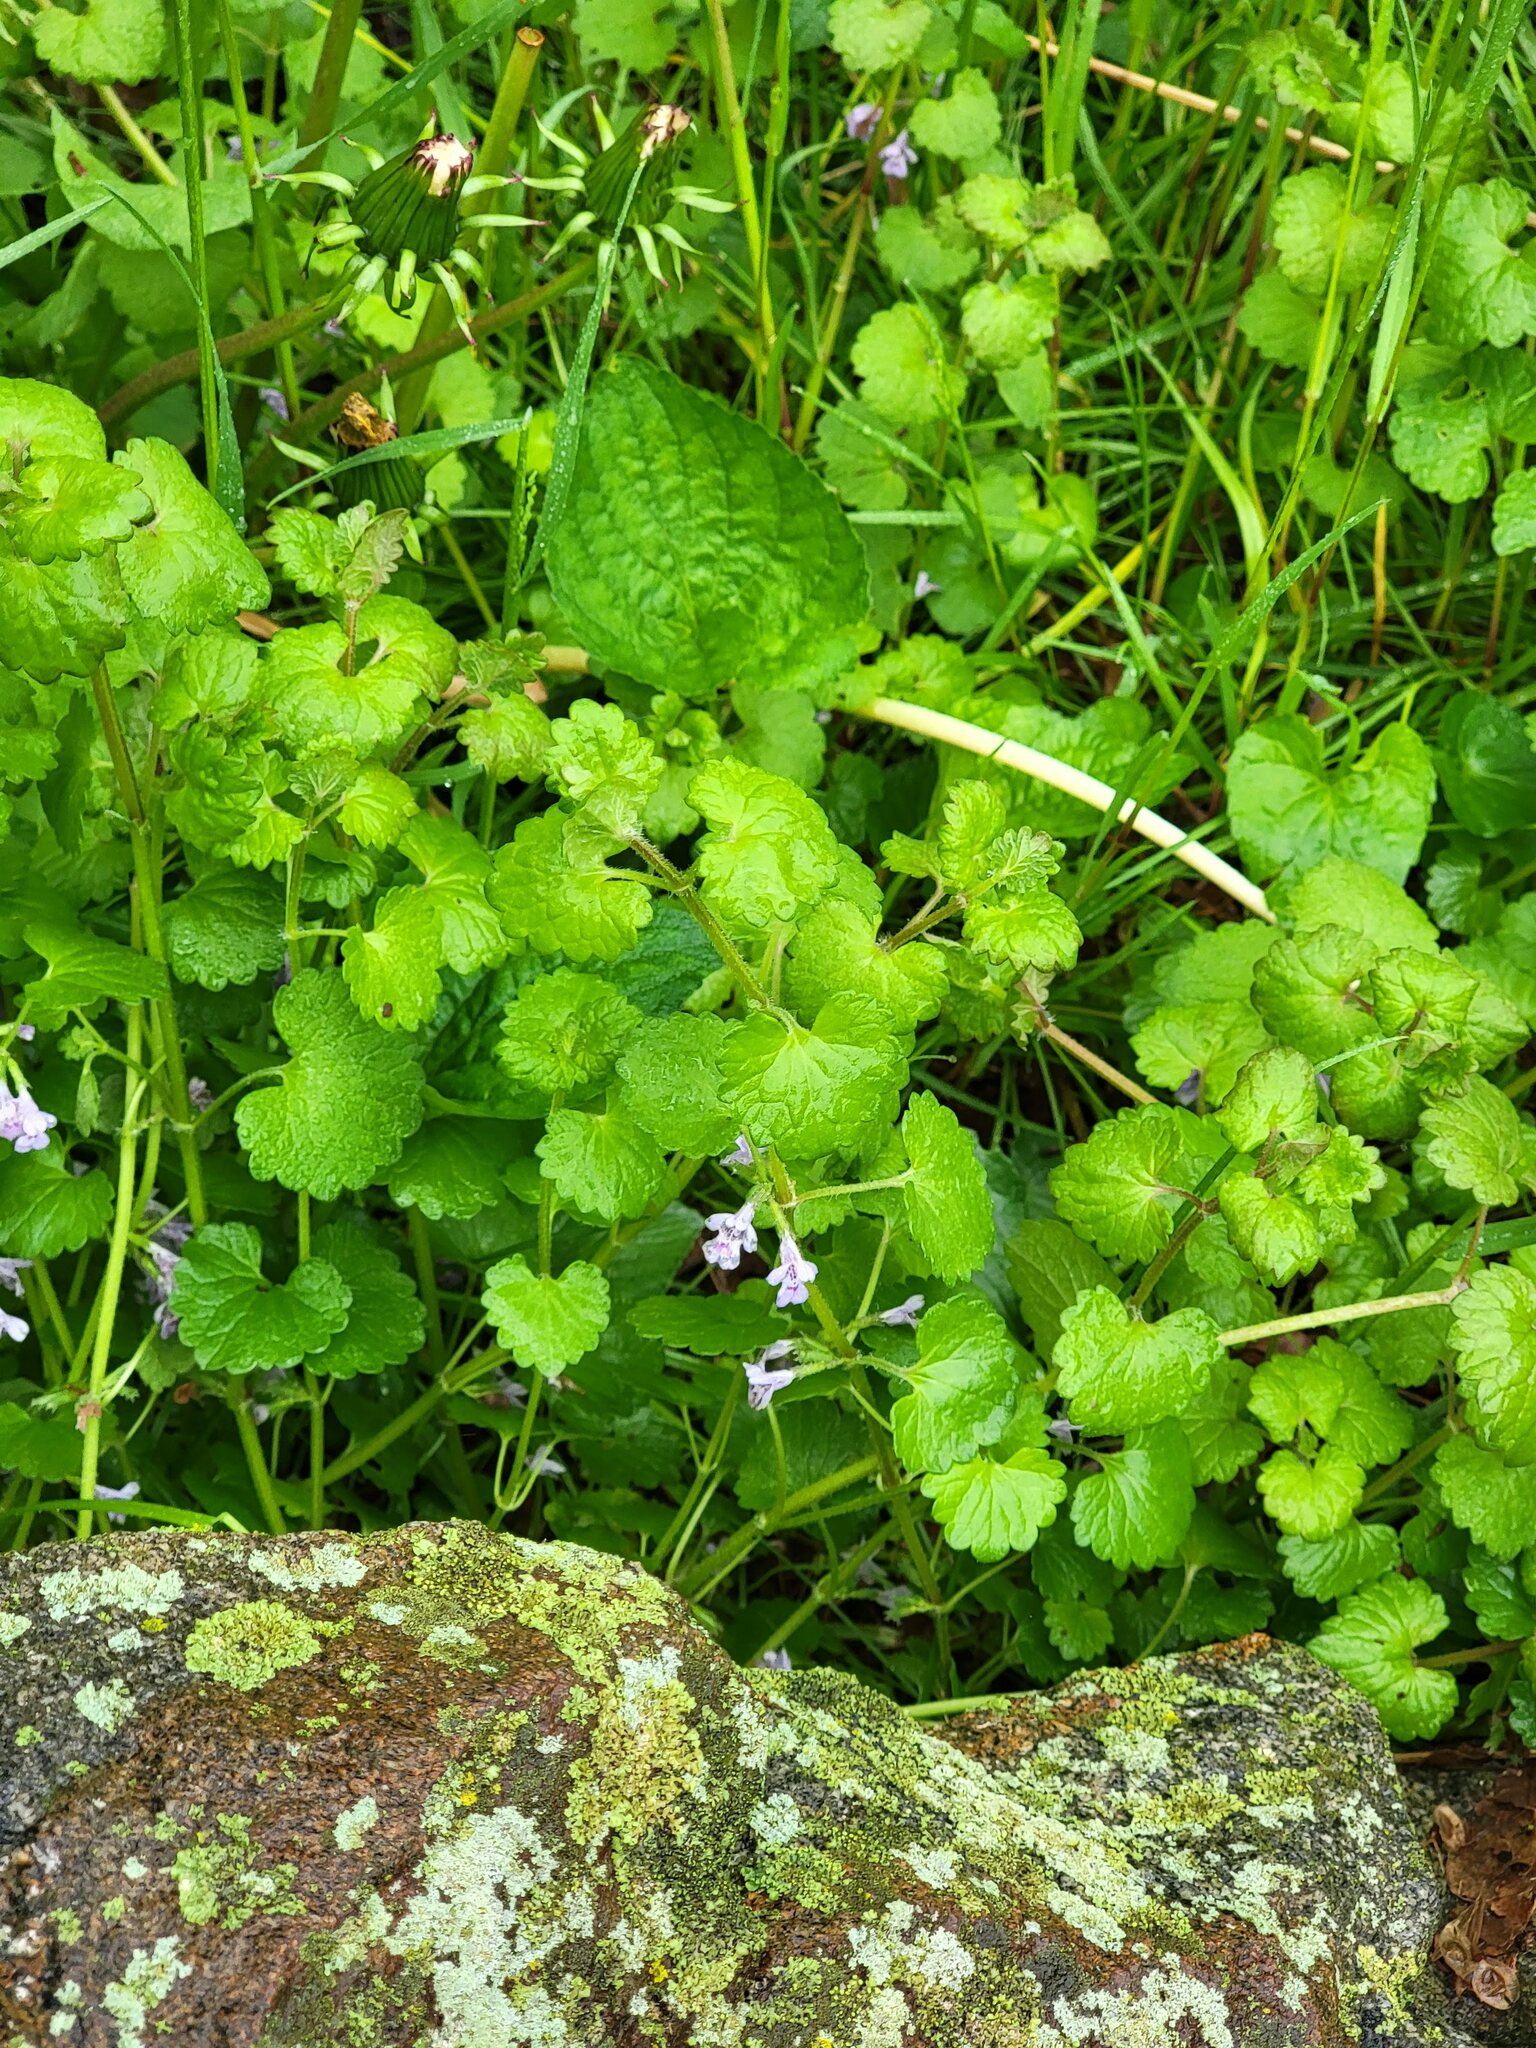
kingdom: Plantae
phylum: Tracheophyta
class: Magnoliopsida
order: Lamiales
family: Lamiaceae
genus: Glechoma
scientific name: Glechoma hederacea
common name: Ground ivy
